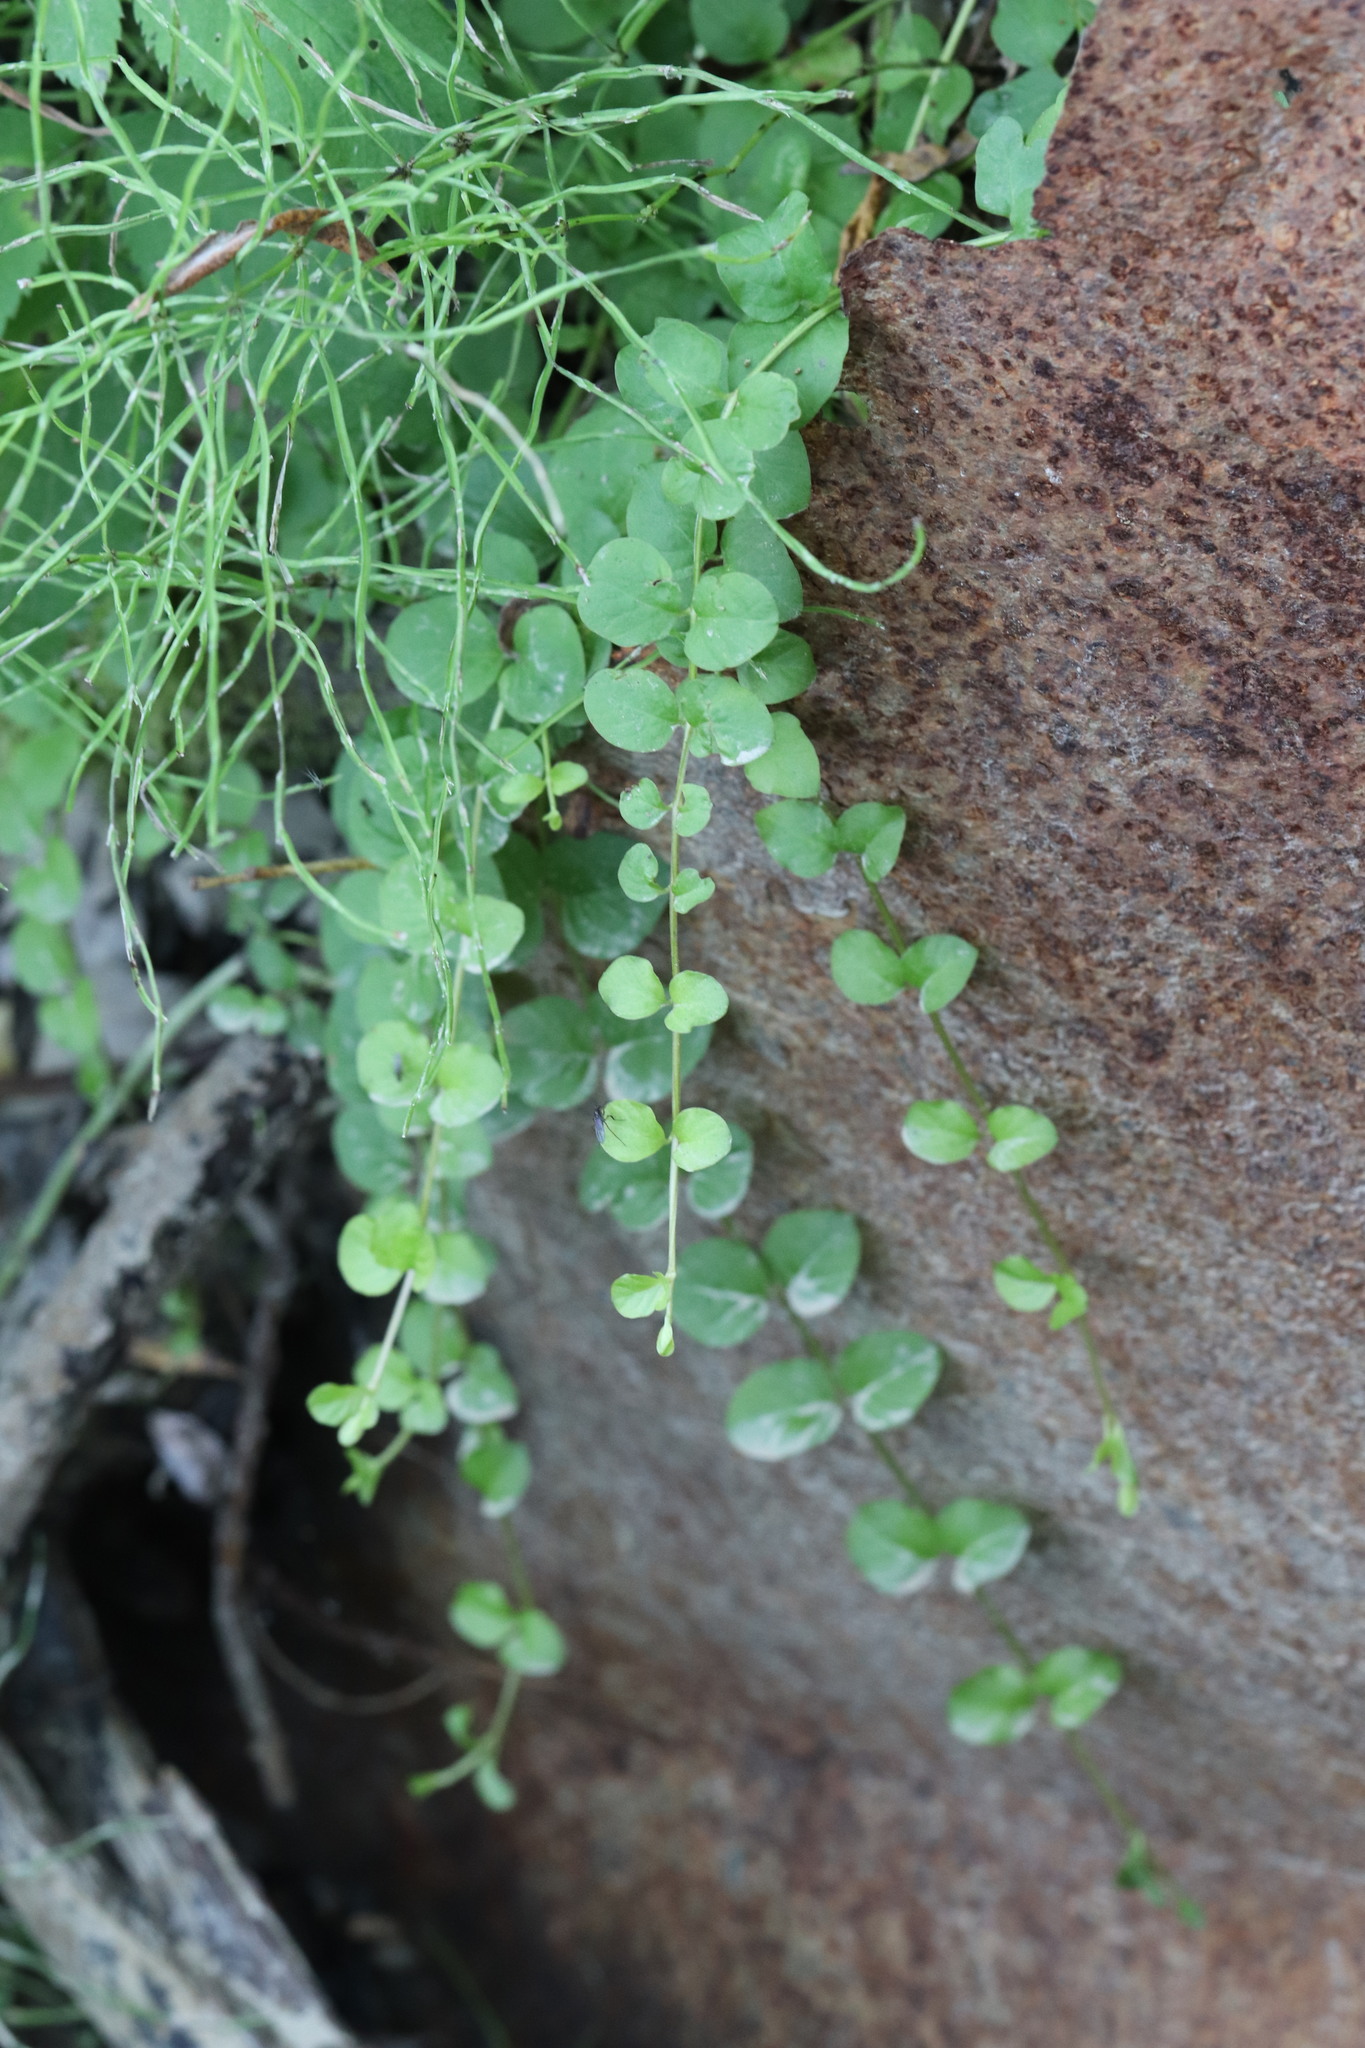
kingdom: Plantae
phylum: Tracheophyta
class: Magnoliopsida
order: Ericales
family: Primulaceae
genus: Lysimachia
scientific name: Lysimachia nummularia
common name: Moneywort
